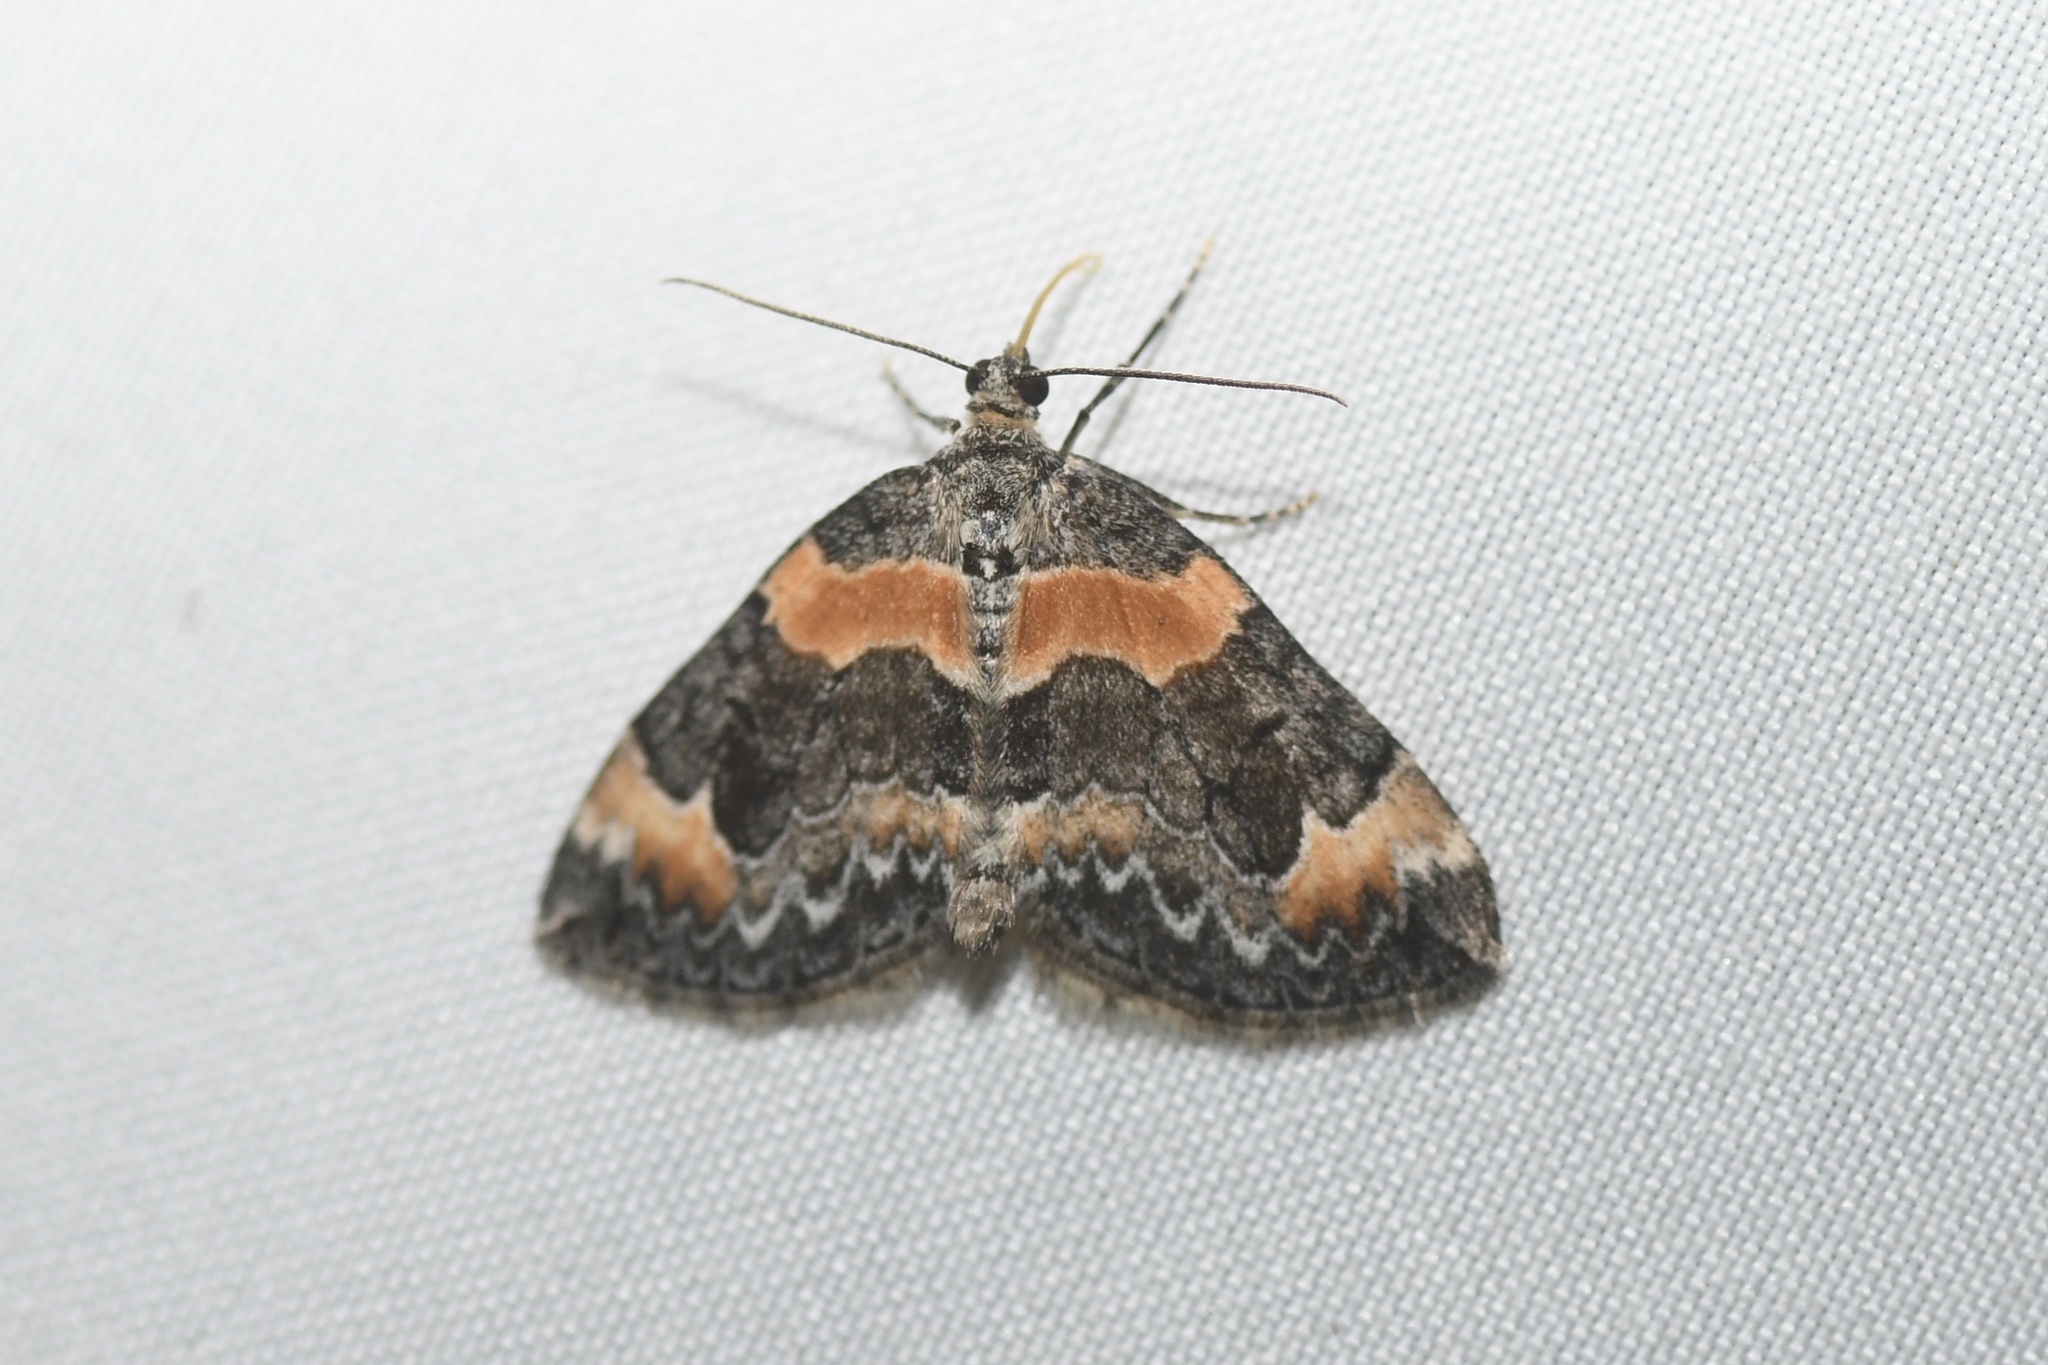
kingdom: Animalia
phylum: Arthropoda
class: Insecta
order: Lepidoptera
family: Geometridae
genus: Dysstroma
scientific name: Dysstroma hersiliata
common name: Orange-barred carpet
